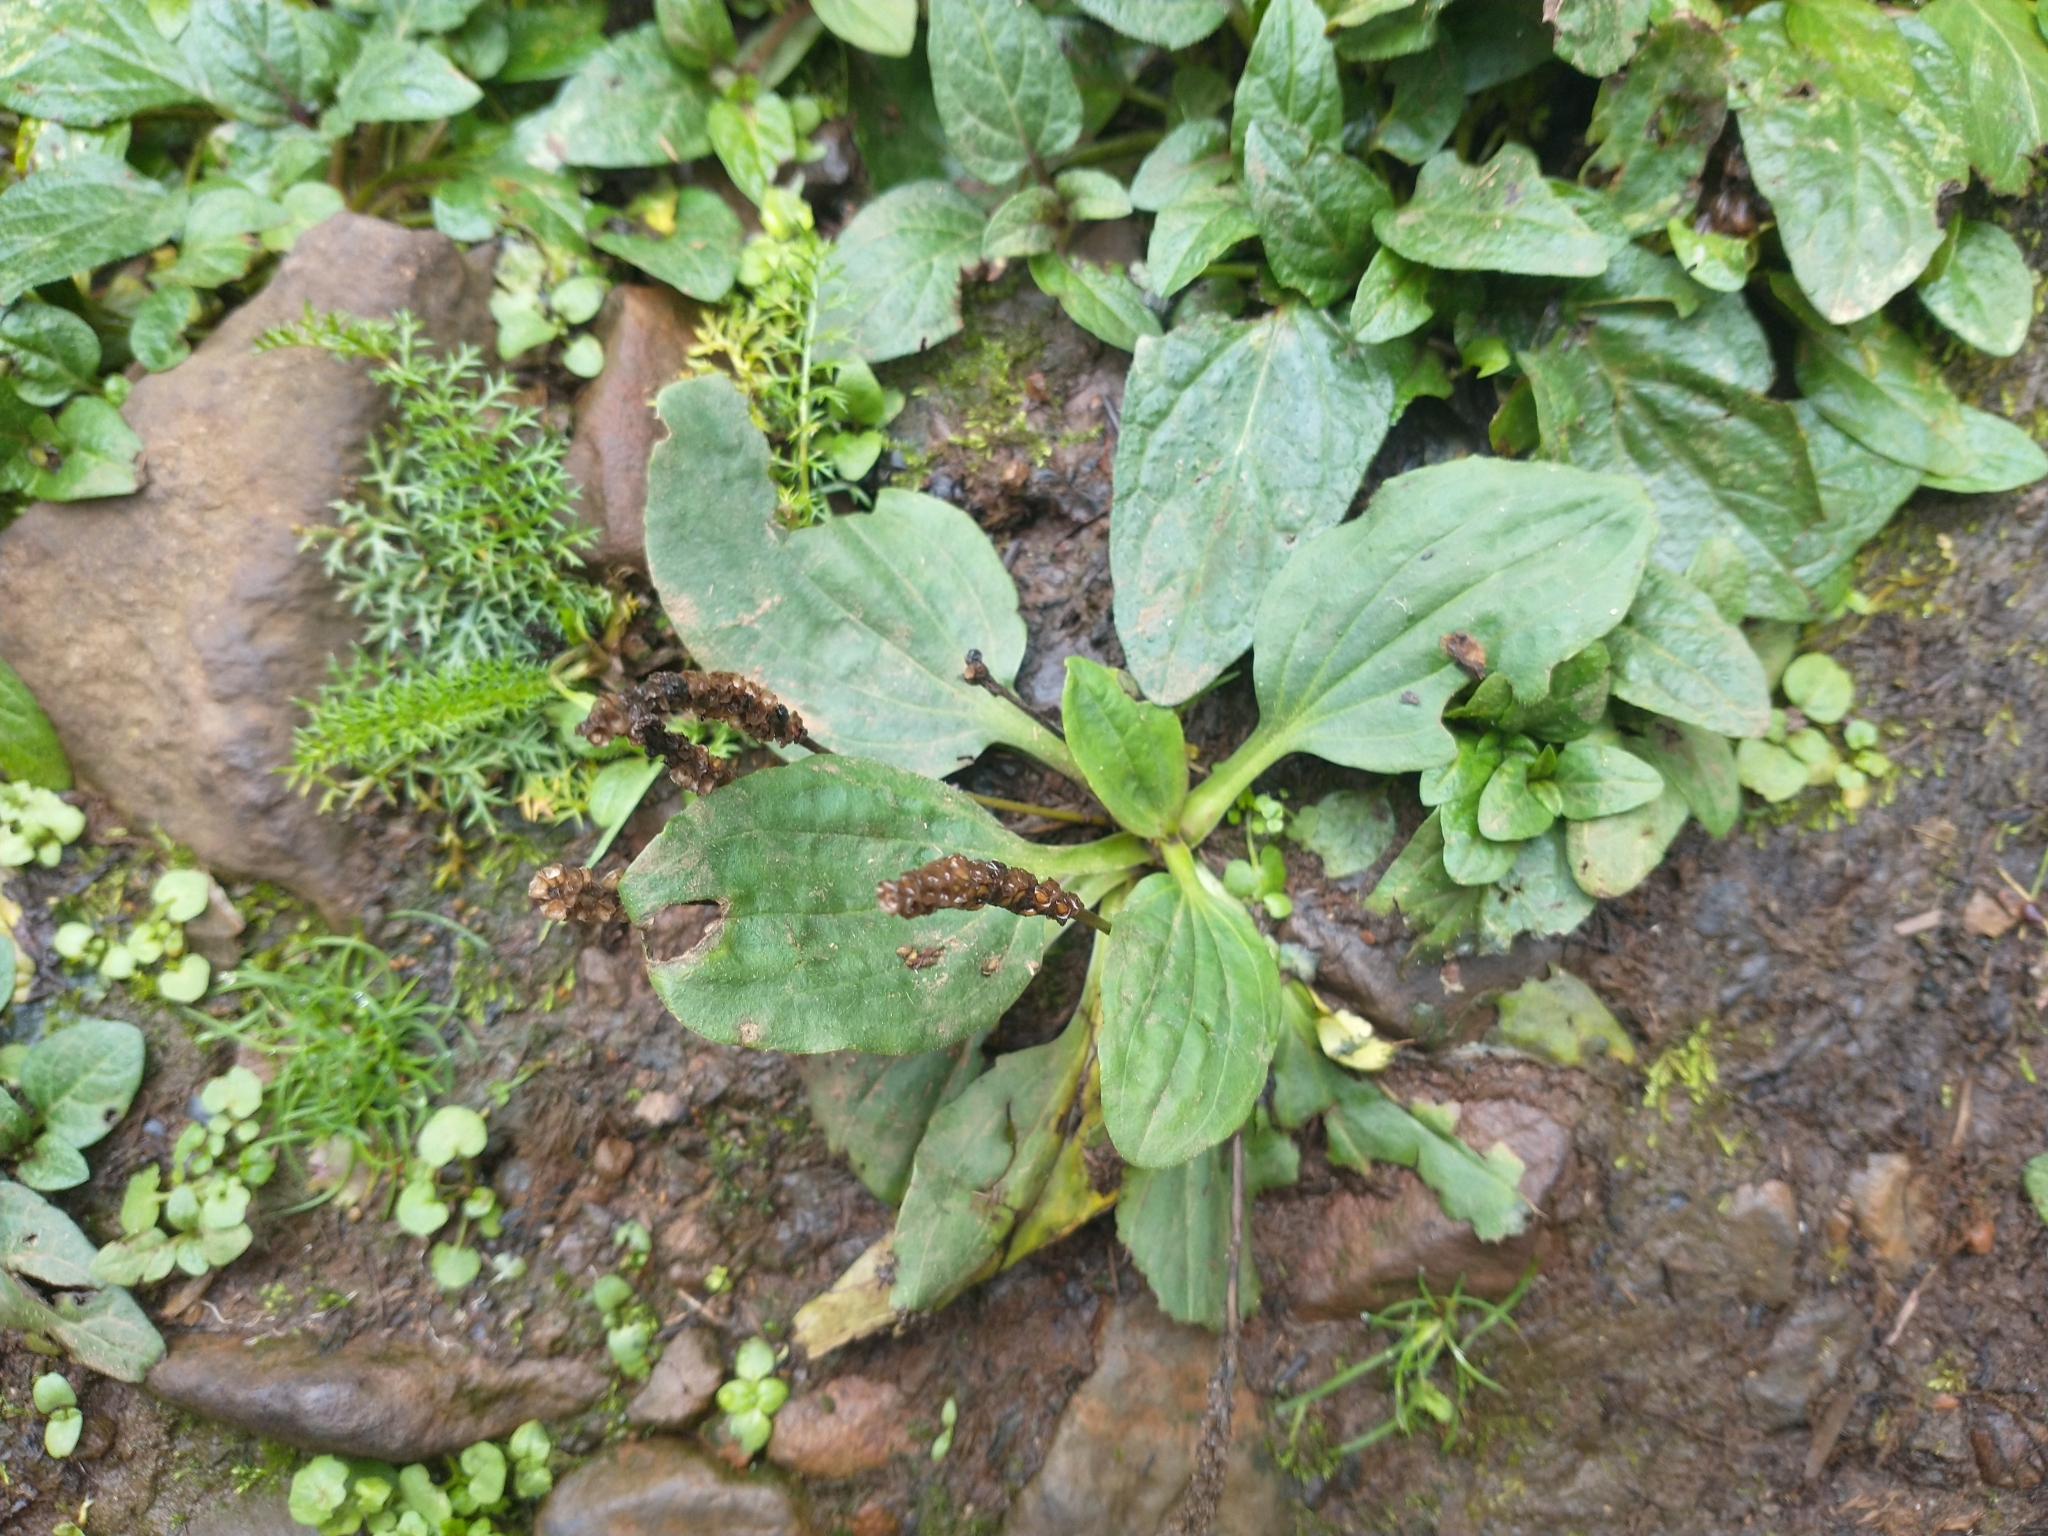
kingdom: Plantae
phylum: Tracheophyta
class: Magnoliopsida
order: Lamiales
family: Plantaginaceae
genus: Plantago
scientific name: Plantago major
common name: Common plantain
